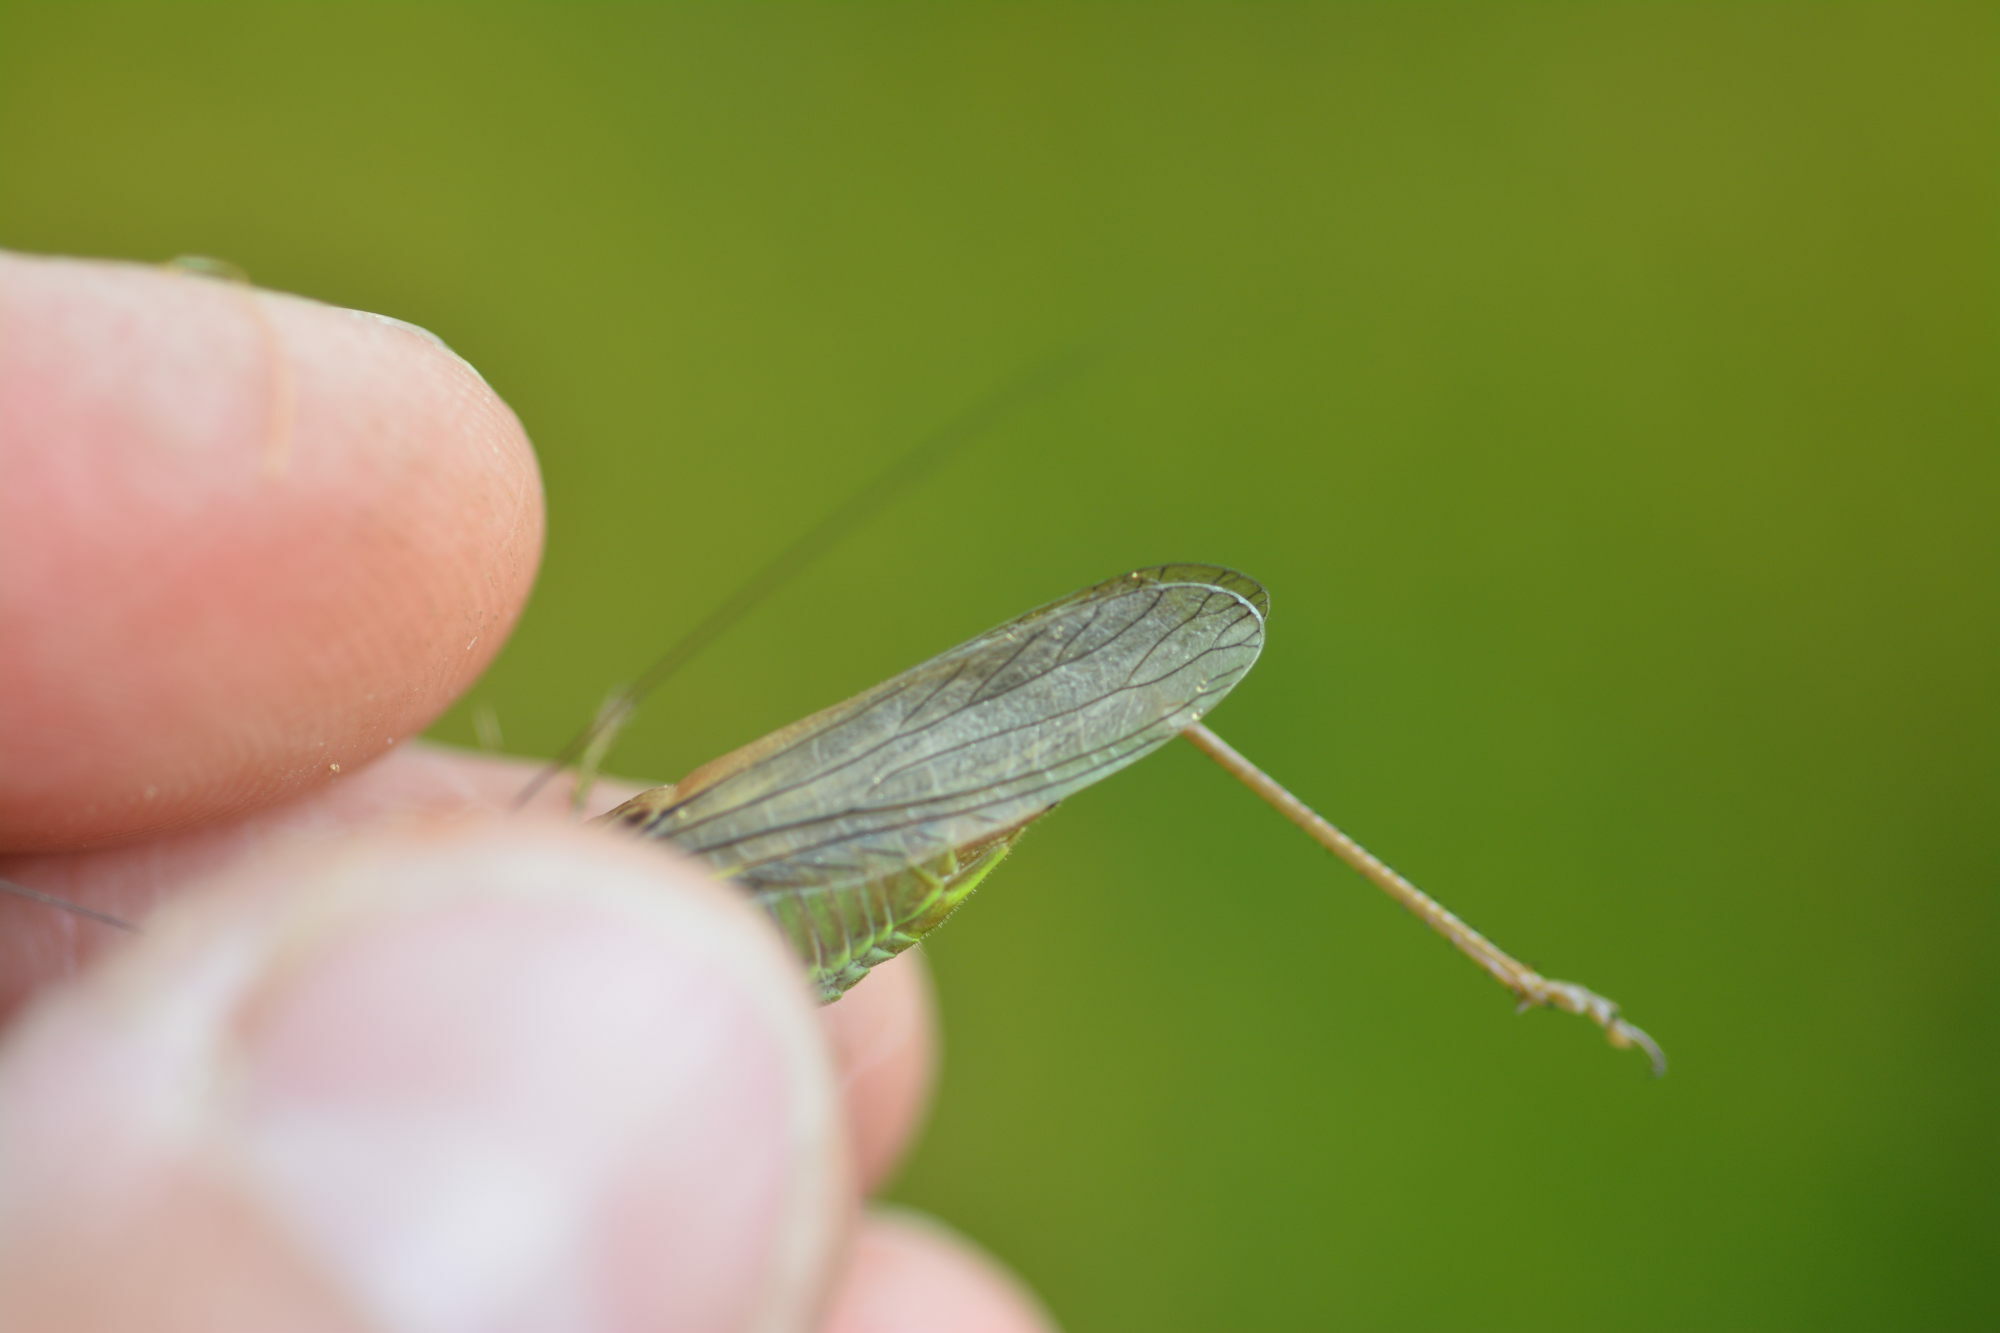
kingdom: Animalia
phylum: Arthropoda
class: Insecta
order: Orthoptera
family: Tettigoniidae
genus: Roeseliana
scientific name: Roeseliana roeselii
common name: Roesel's bush cricket
